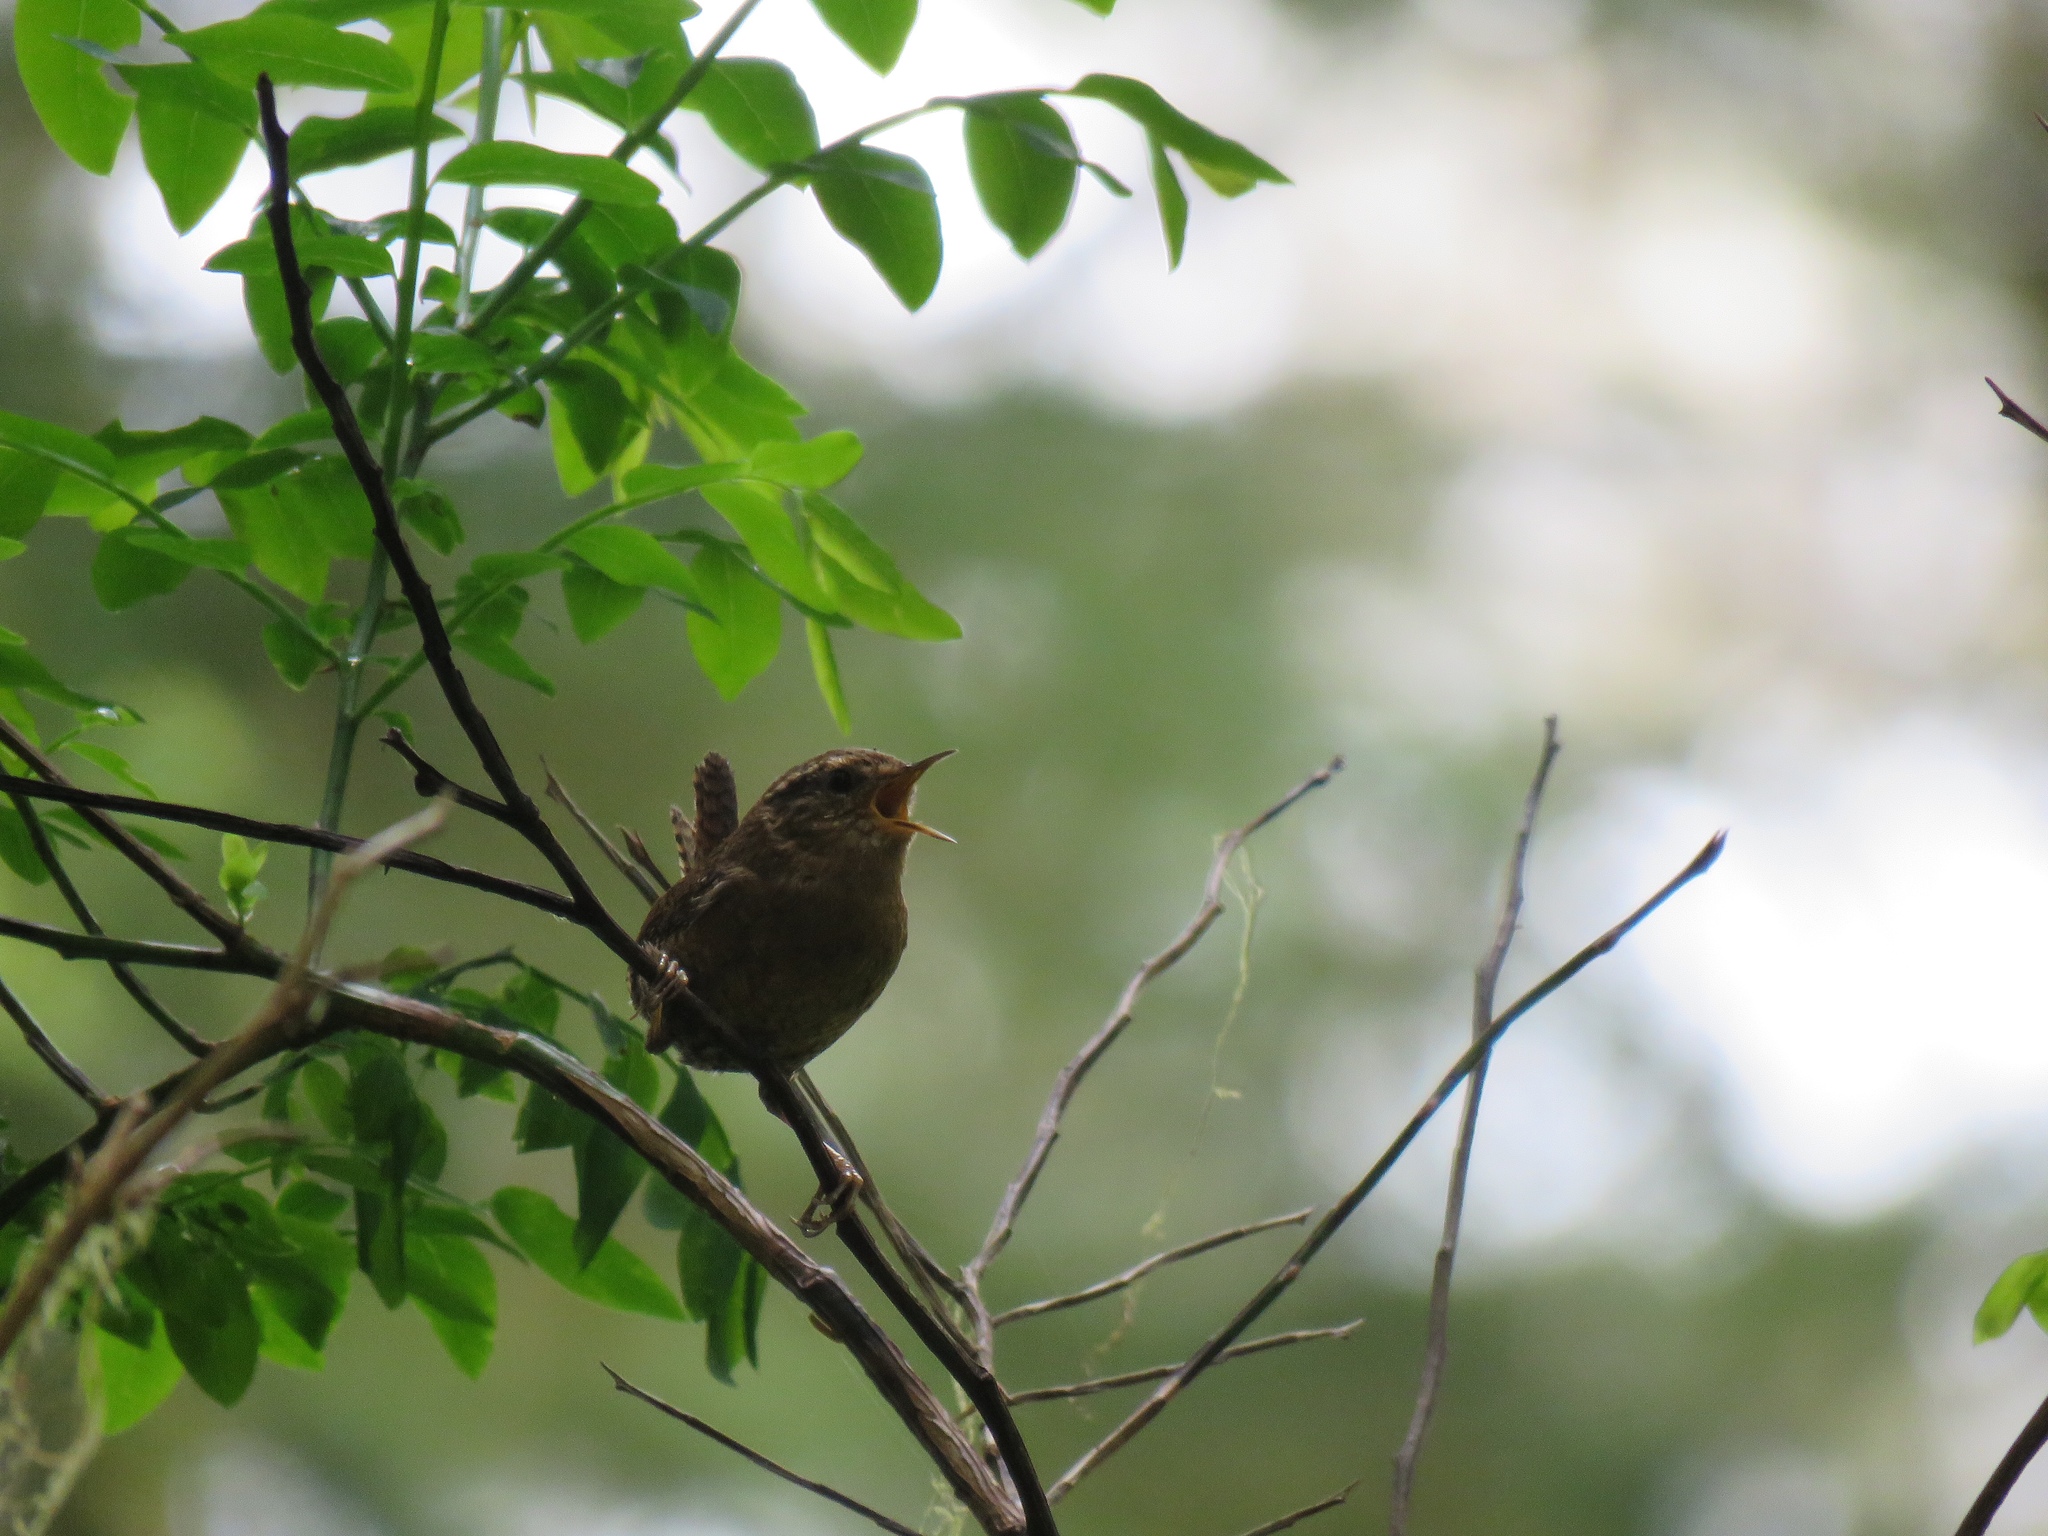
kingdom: Animalia
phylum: Chordata
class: Aves
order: Passeriformes
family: Troglodytidae
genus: Troglodytes
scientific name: Troglodytes pacificus
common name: Pacific wren
